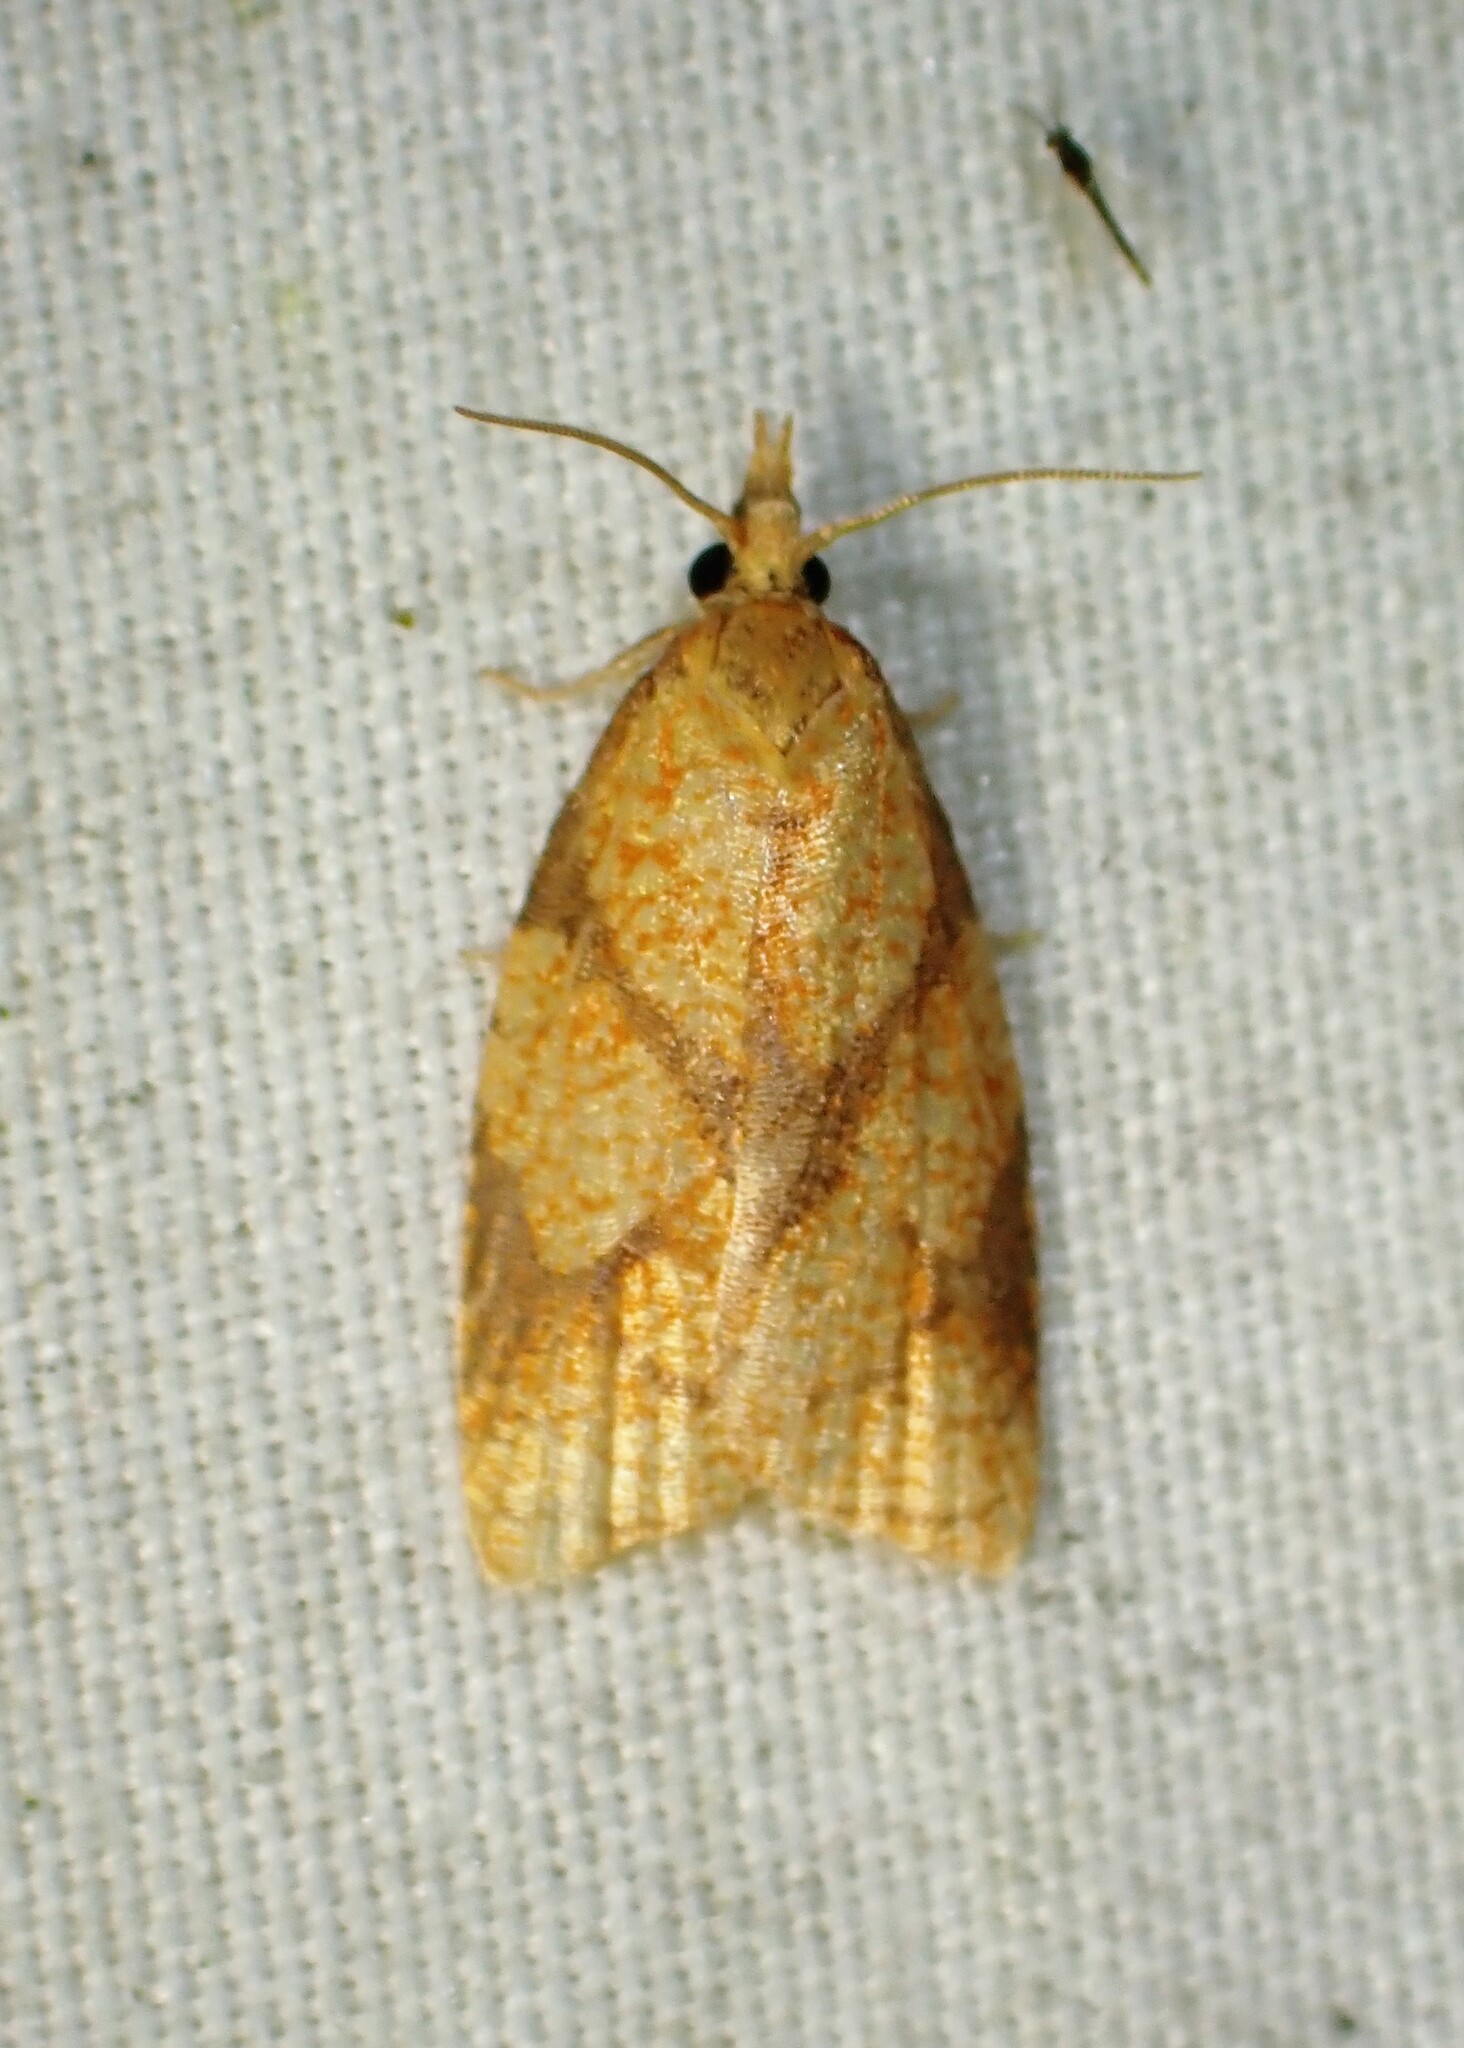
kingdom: Animalia
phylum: Arthropoda
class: Insecta
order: Lepidoptera
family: Tortricidae
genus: Cenopis
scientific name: Cenopis reticulatana
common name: Reticulated fruitworm moth
